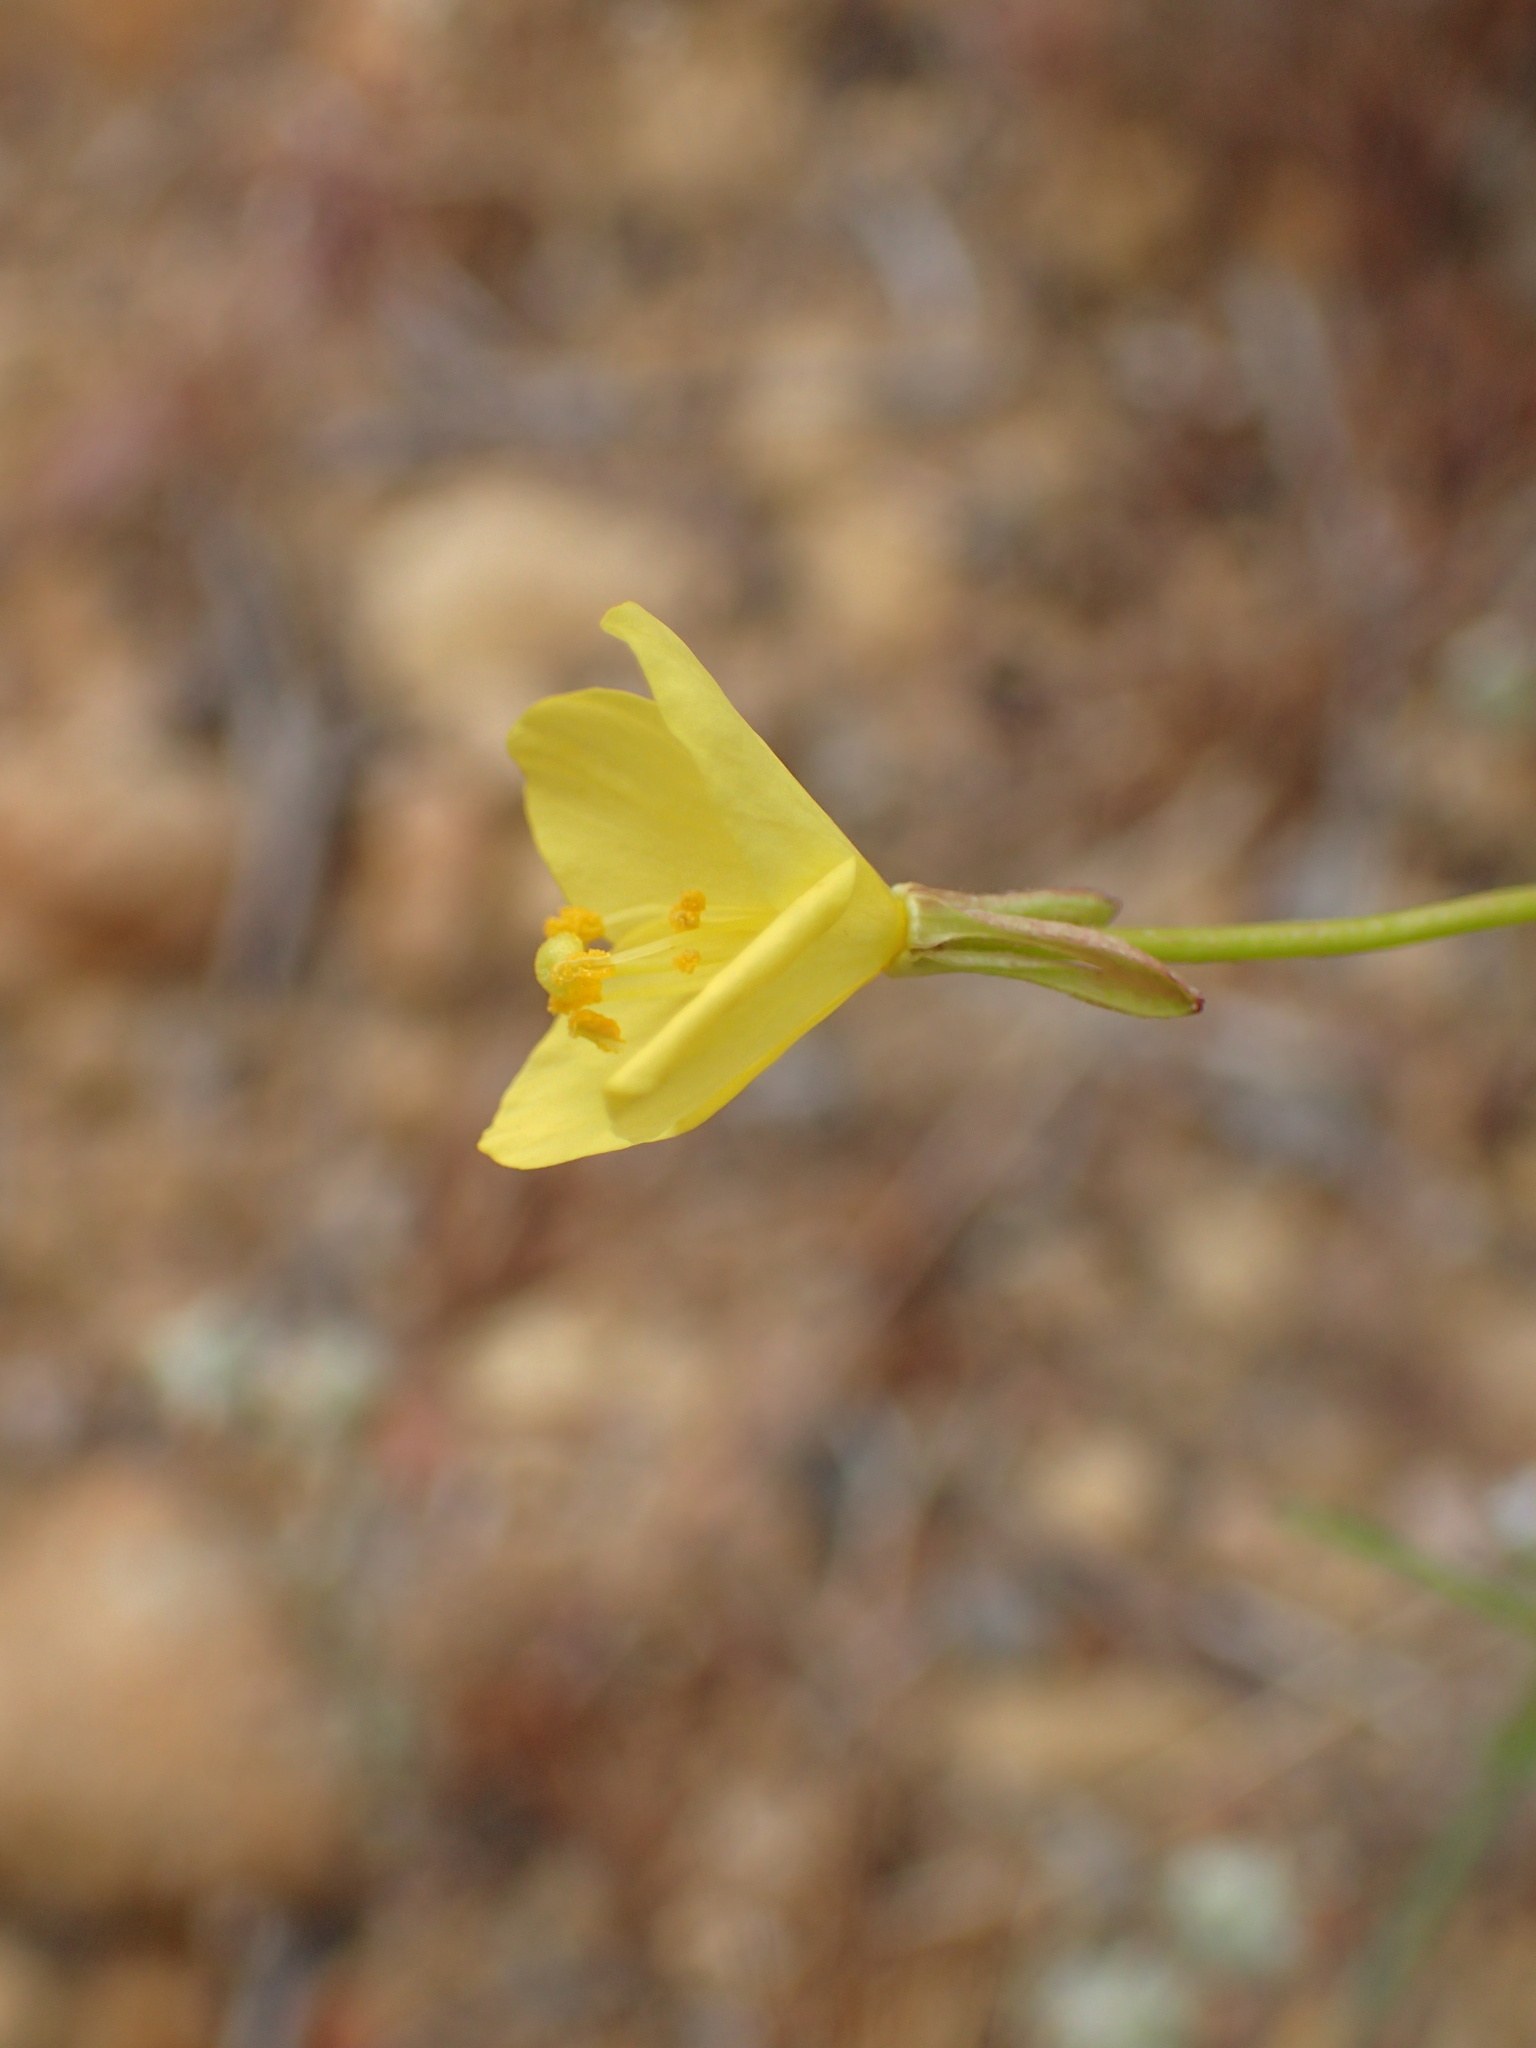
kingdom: Plantae
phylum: Tracheophyta
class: Magnoliopsida
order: Myrtales
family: Onagraceae
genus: Eulobus
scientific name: Eulobus californicus
